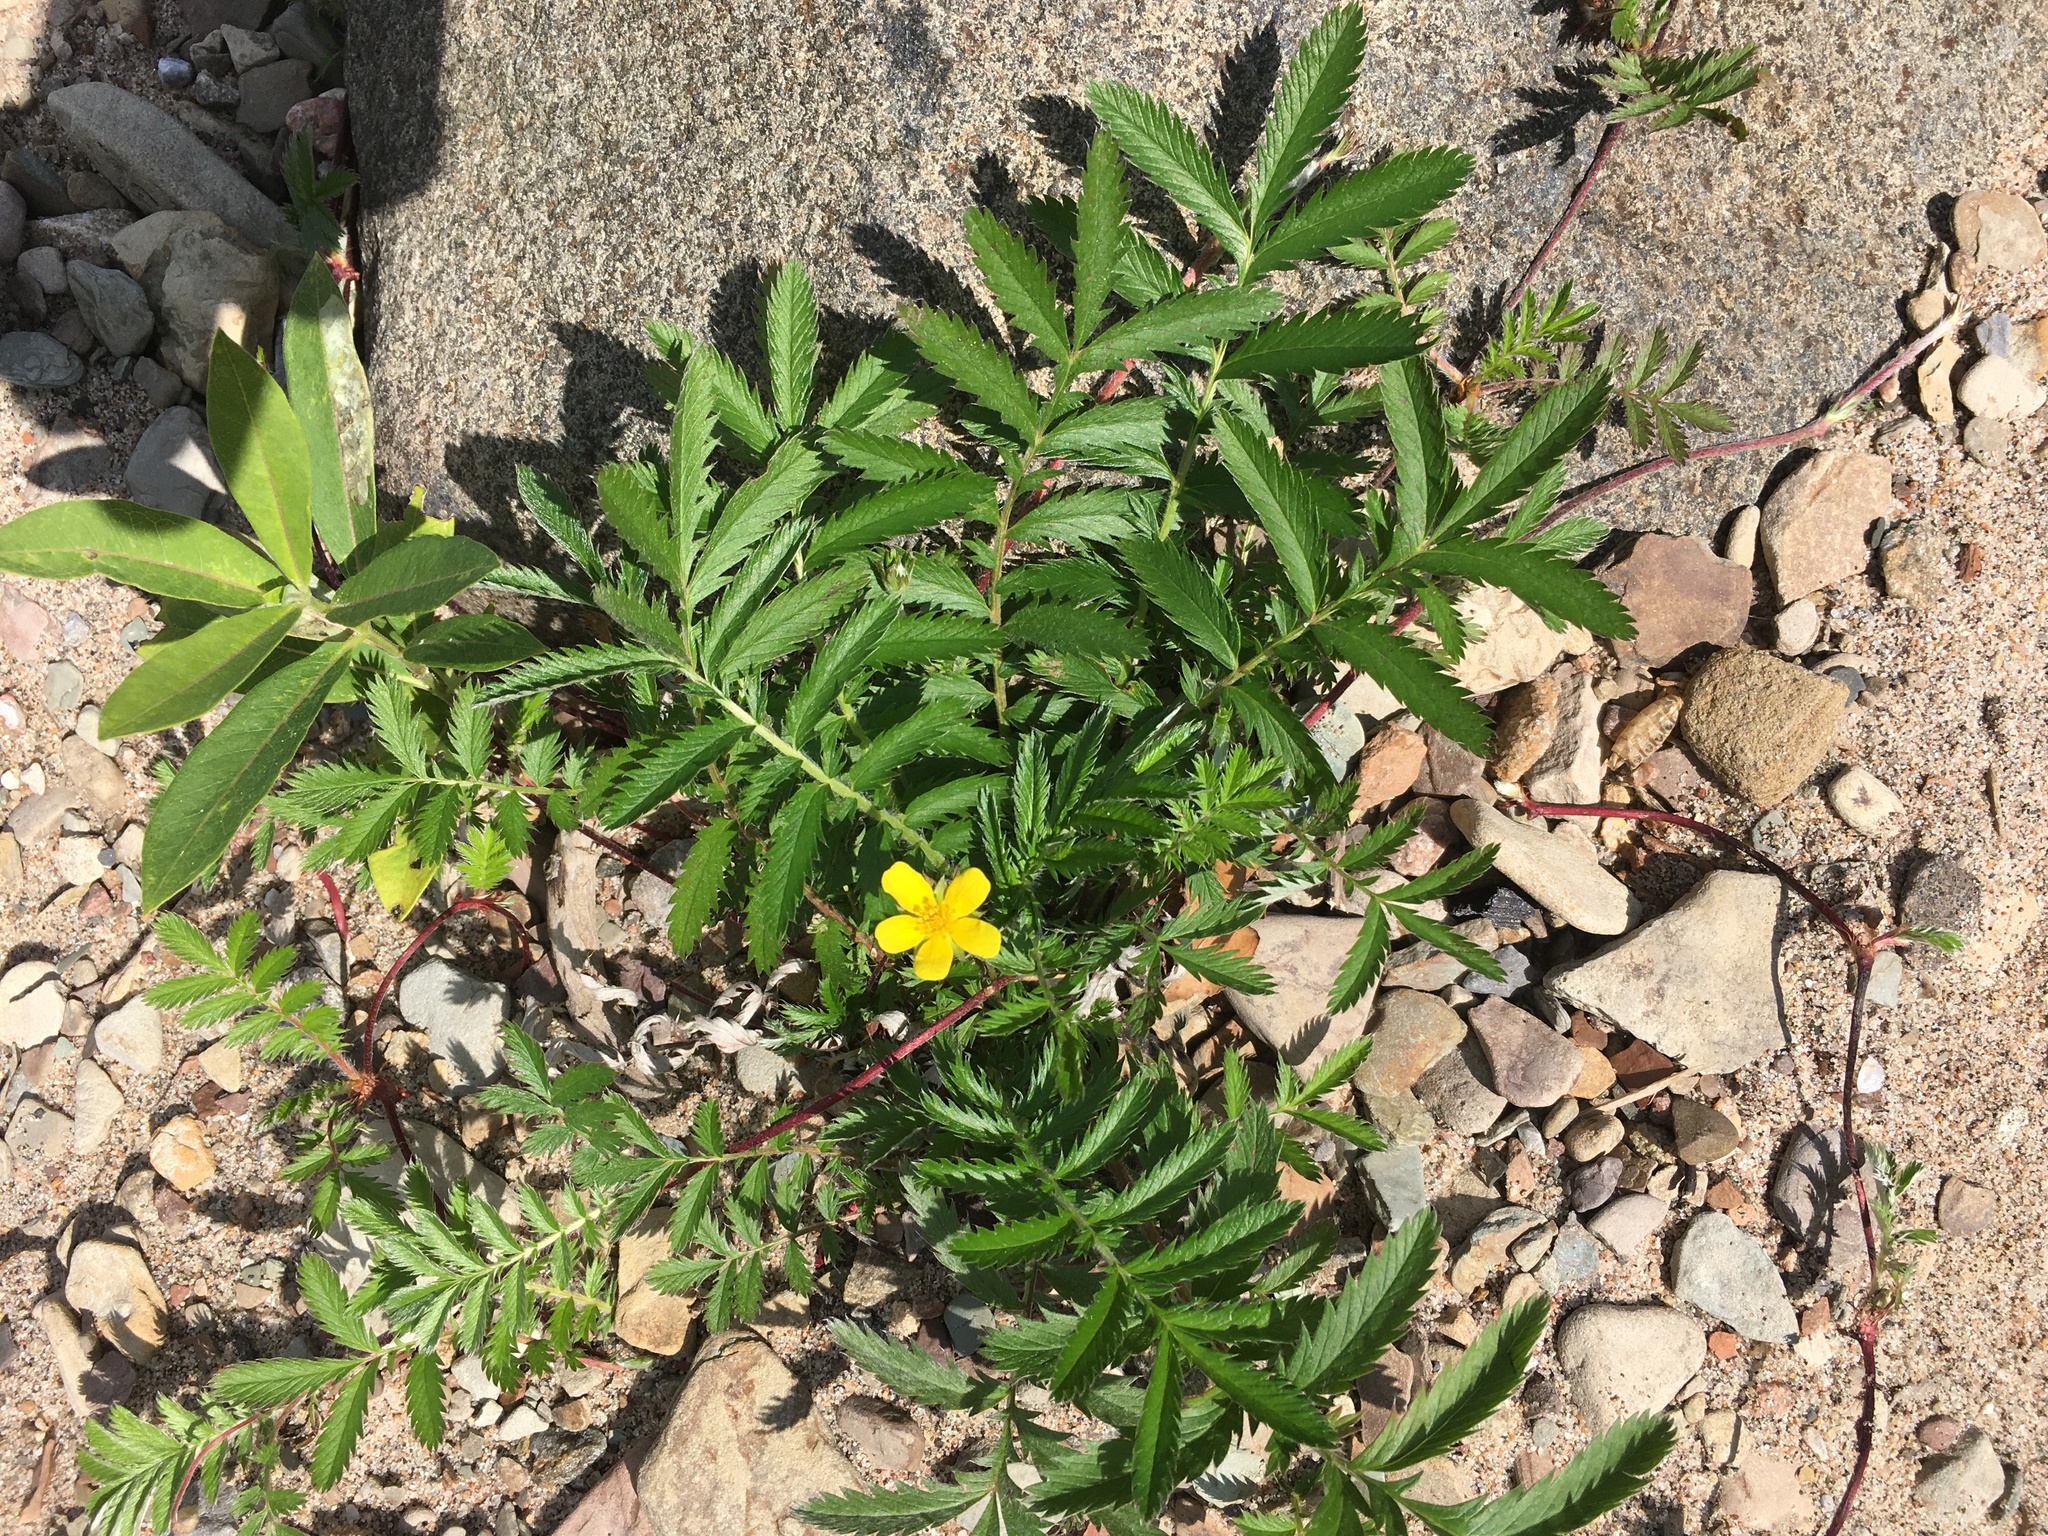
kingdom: Plantae
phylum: Tracheophyta
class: Magnoliopsida
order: Rosales
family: Rosaceae
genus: Argentina
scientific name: Argentina anserina
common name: Common silverweed
